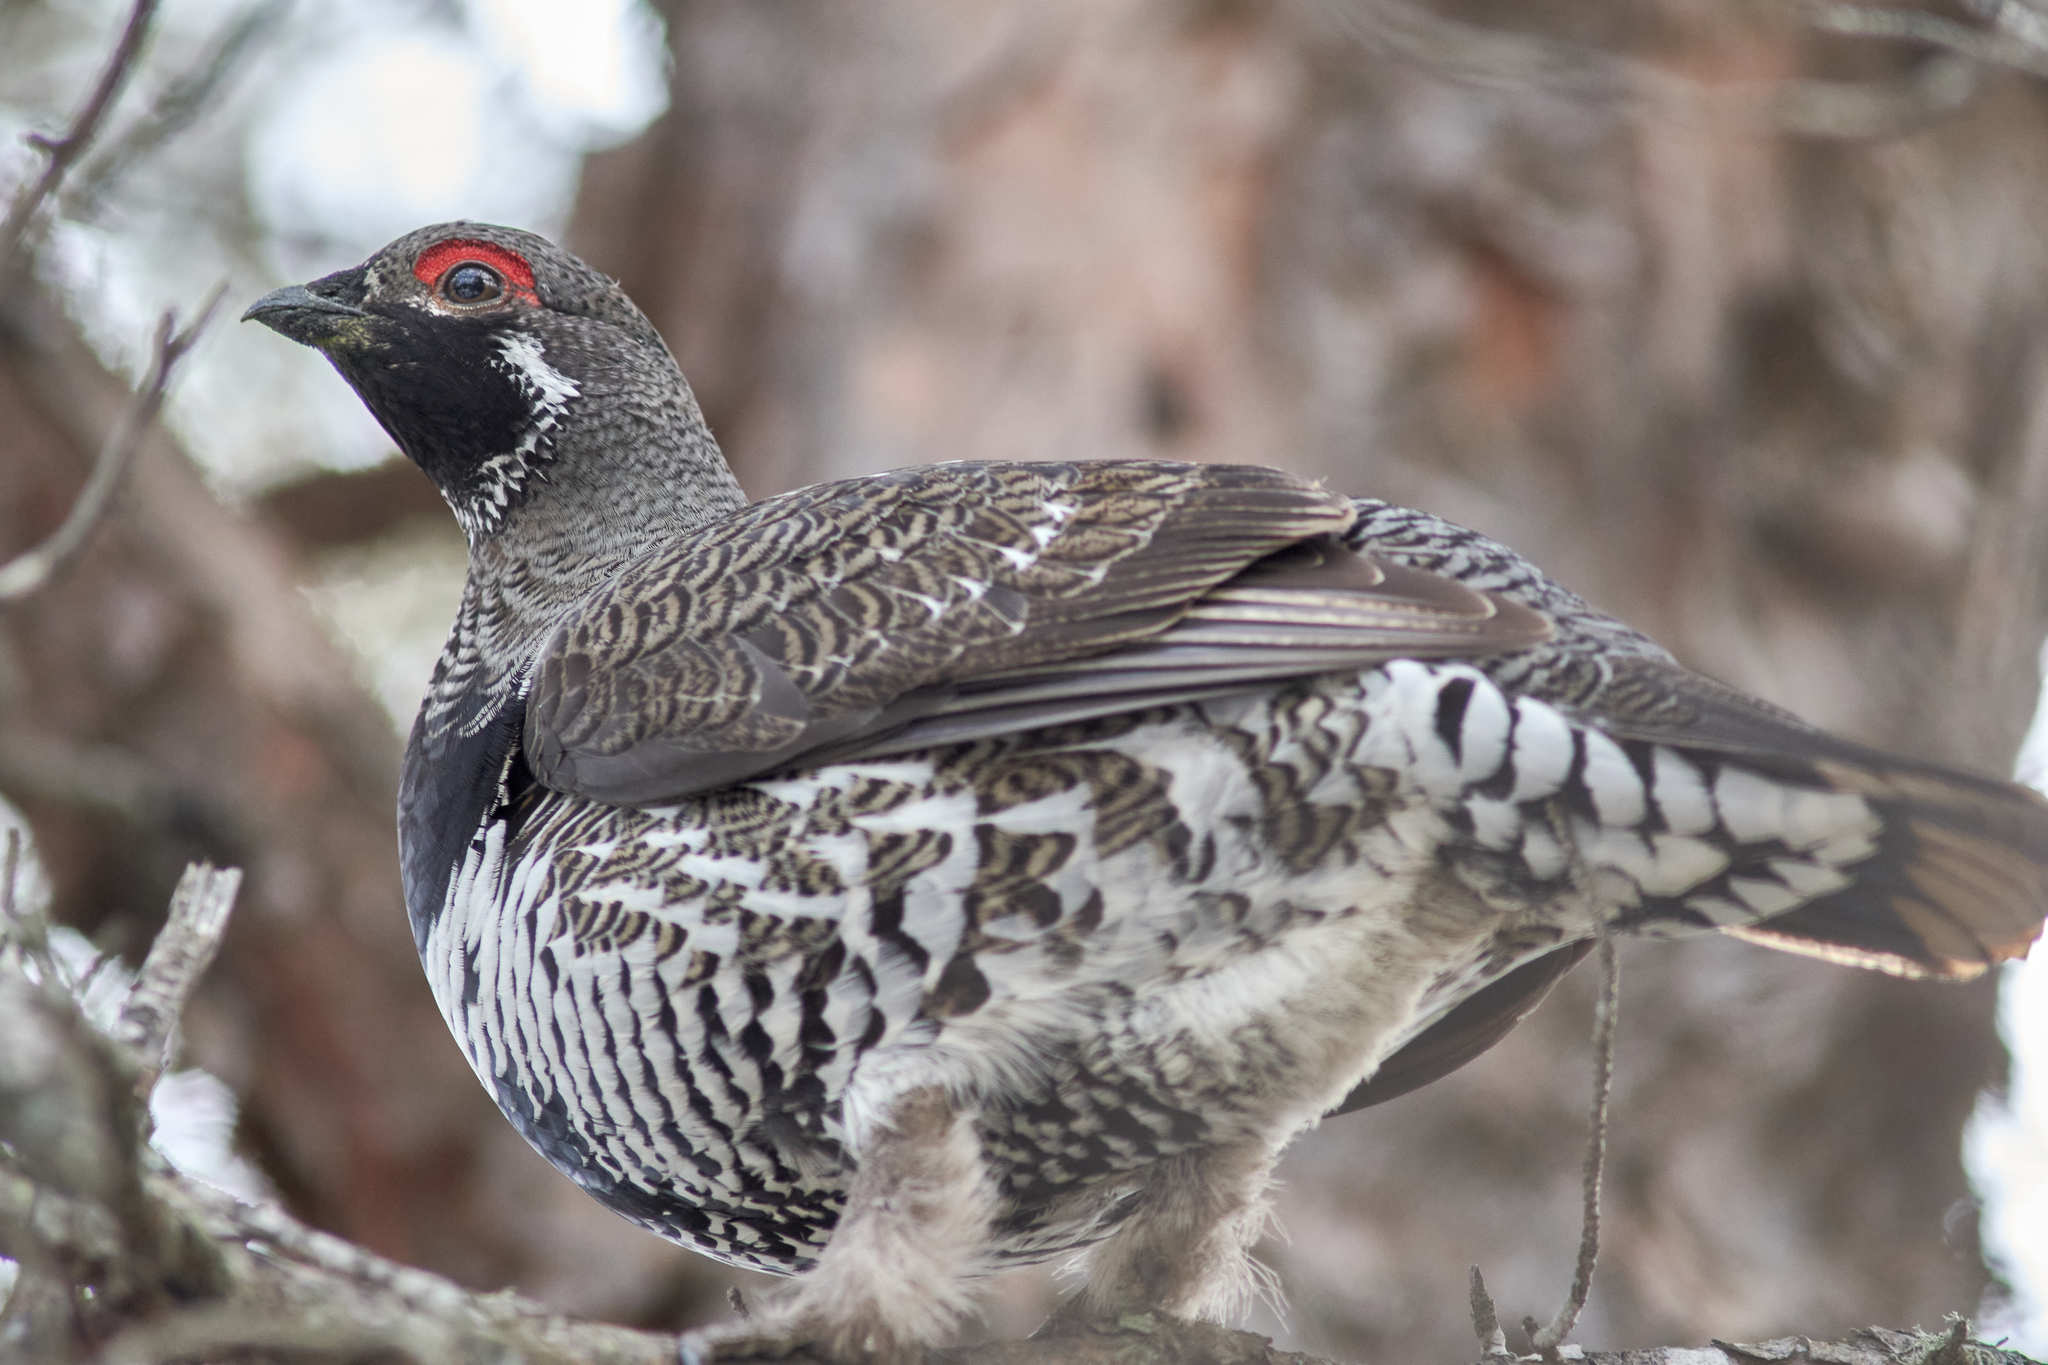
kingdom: Animalia
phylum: Chordata
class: Aves
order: Galliformes
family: Phasianidae
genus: Canachites
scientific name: Canachites canadensis
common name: Spruce grouse
